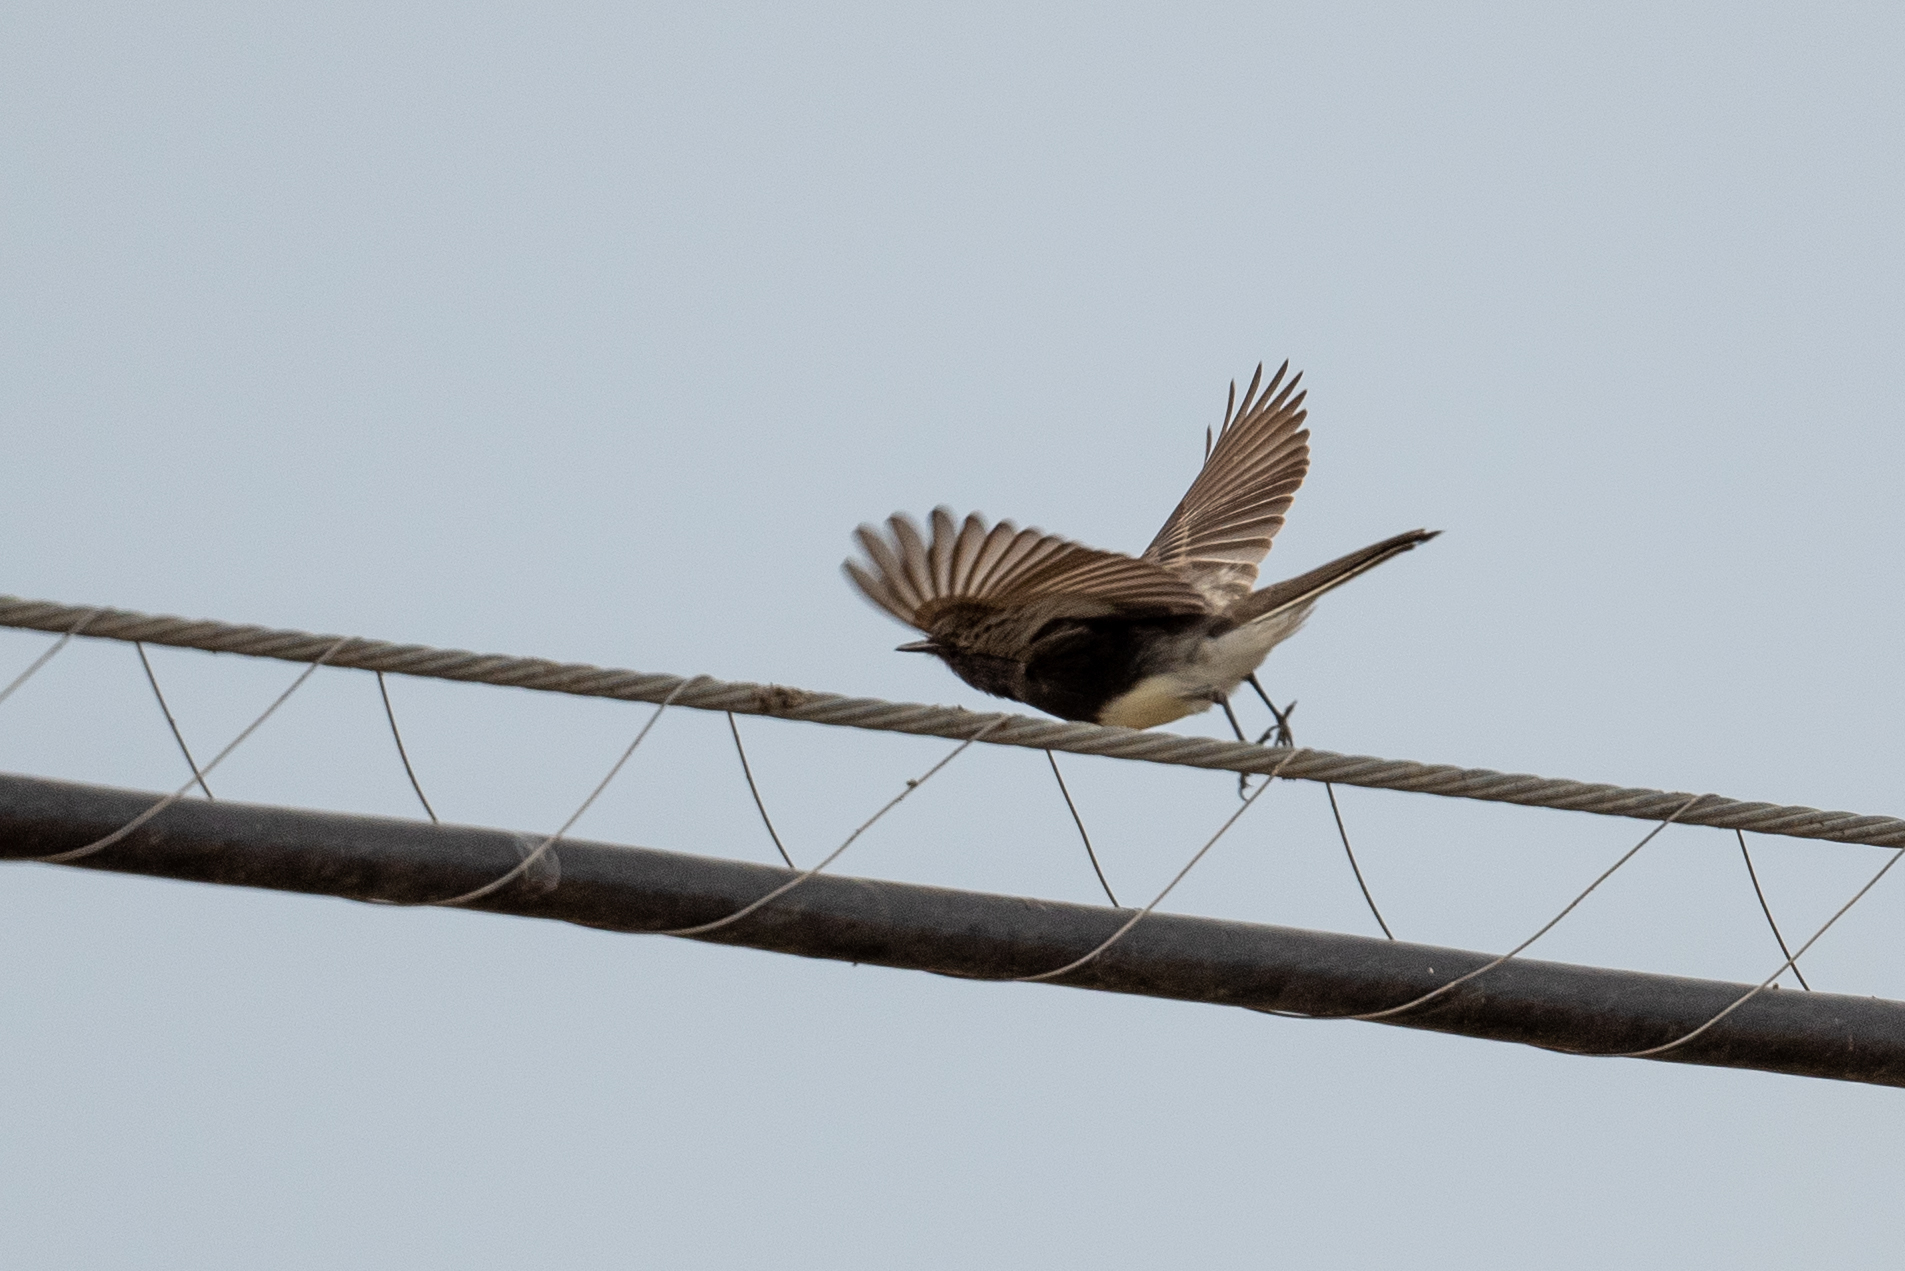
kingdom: Animalia
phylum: Chordata
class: Aves
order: Passeriformes
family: Tyrannidae
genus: Sayornis
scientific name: Sayornis nigricans
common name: Black phoebe
